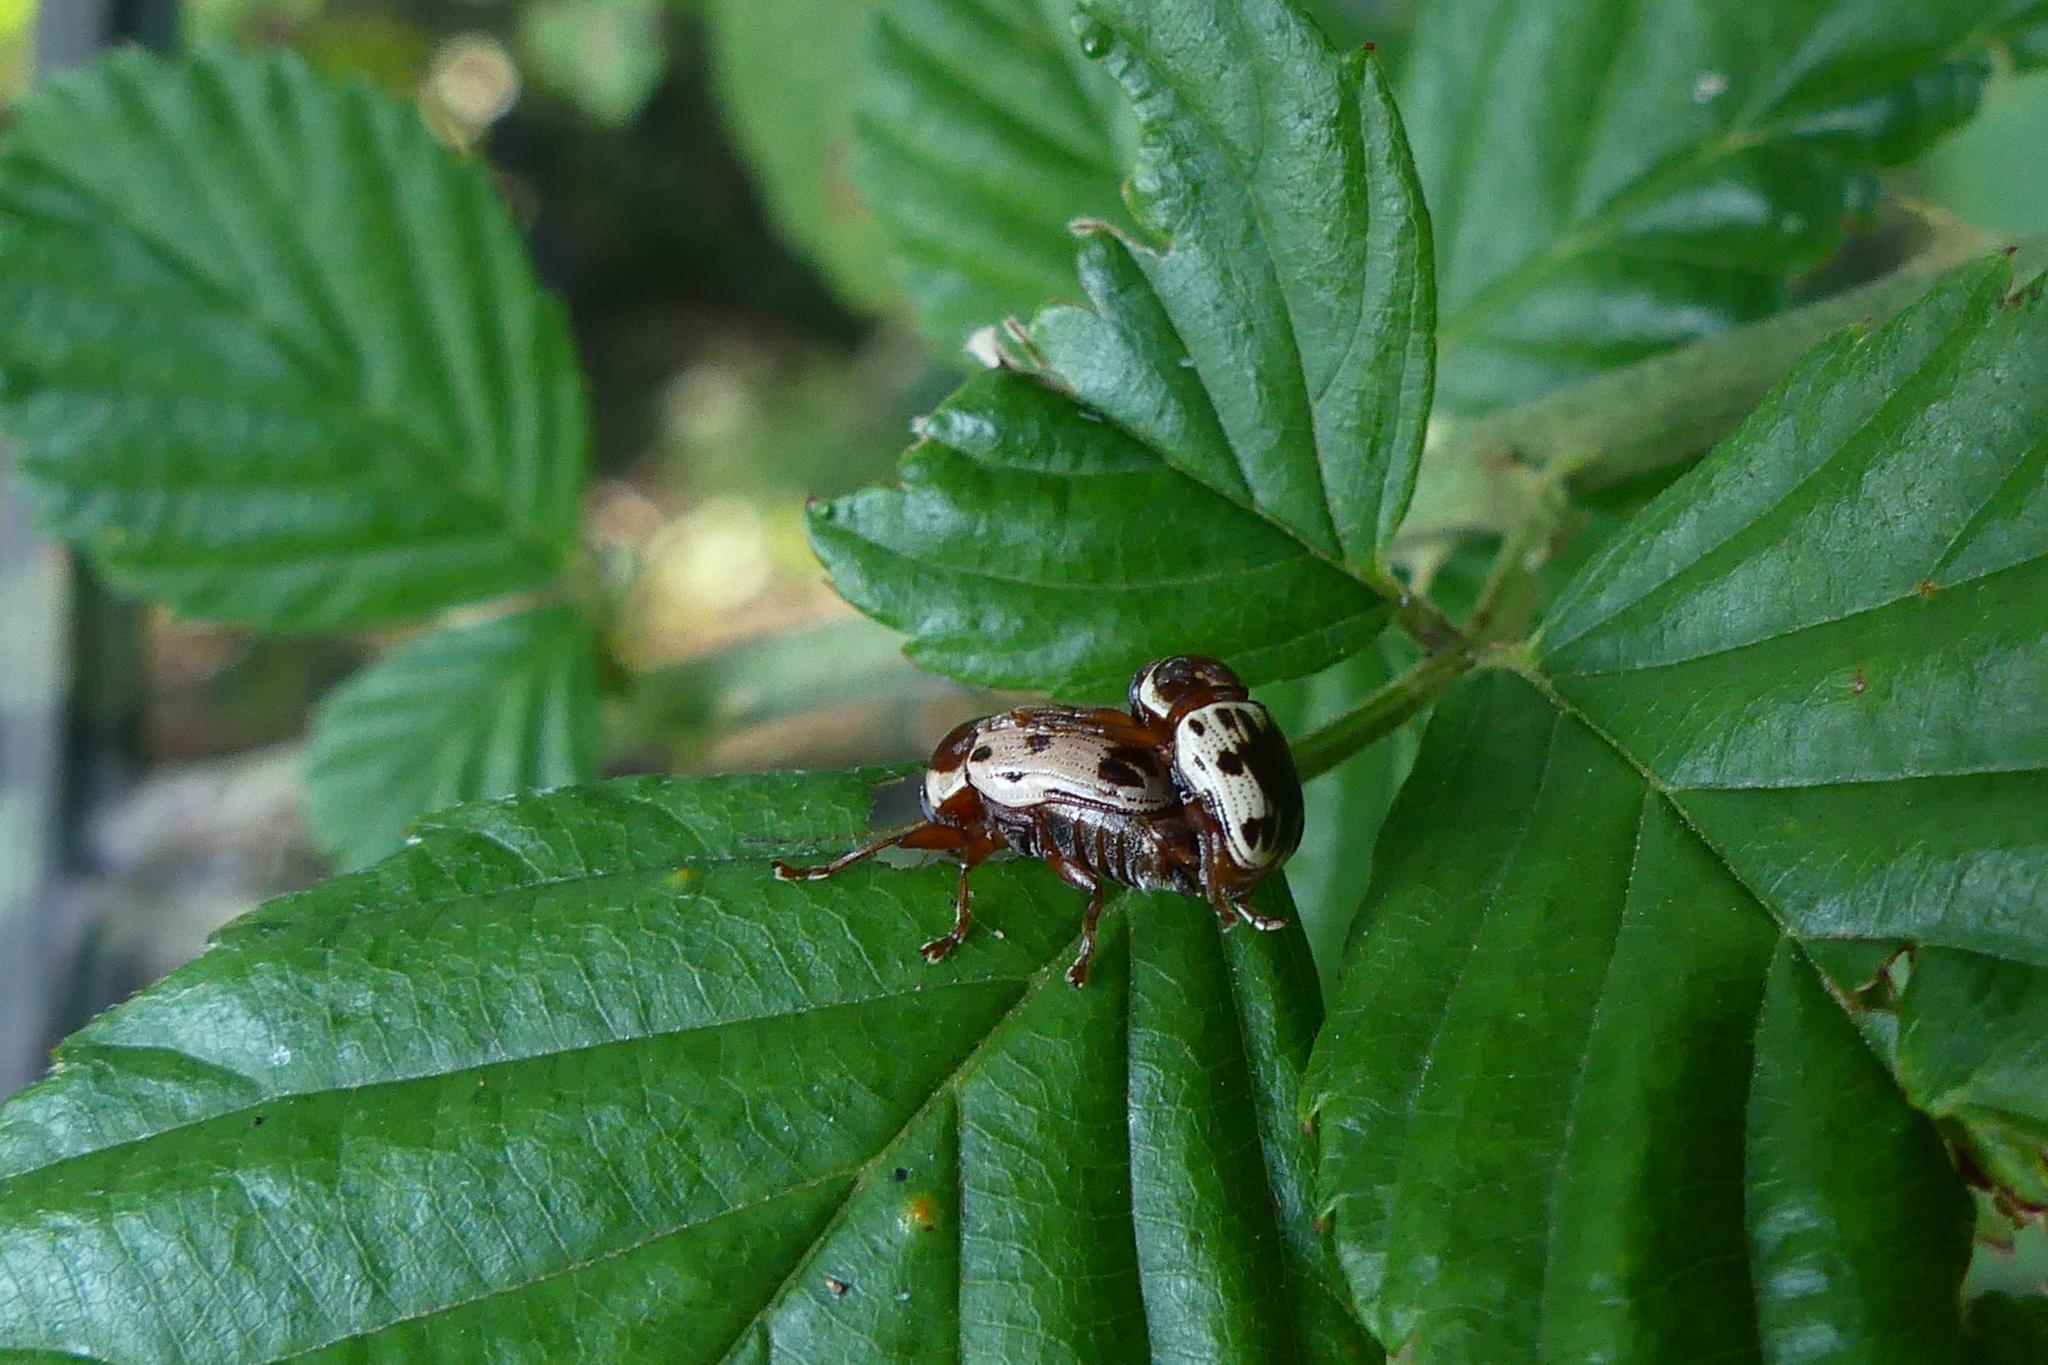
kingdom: Animalia
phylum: Arthropoda
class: Insecta
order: Coleoptera
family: Chrysomelidae
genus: Cryptocephalus
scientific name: Cryptocephalus mutabilis
